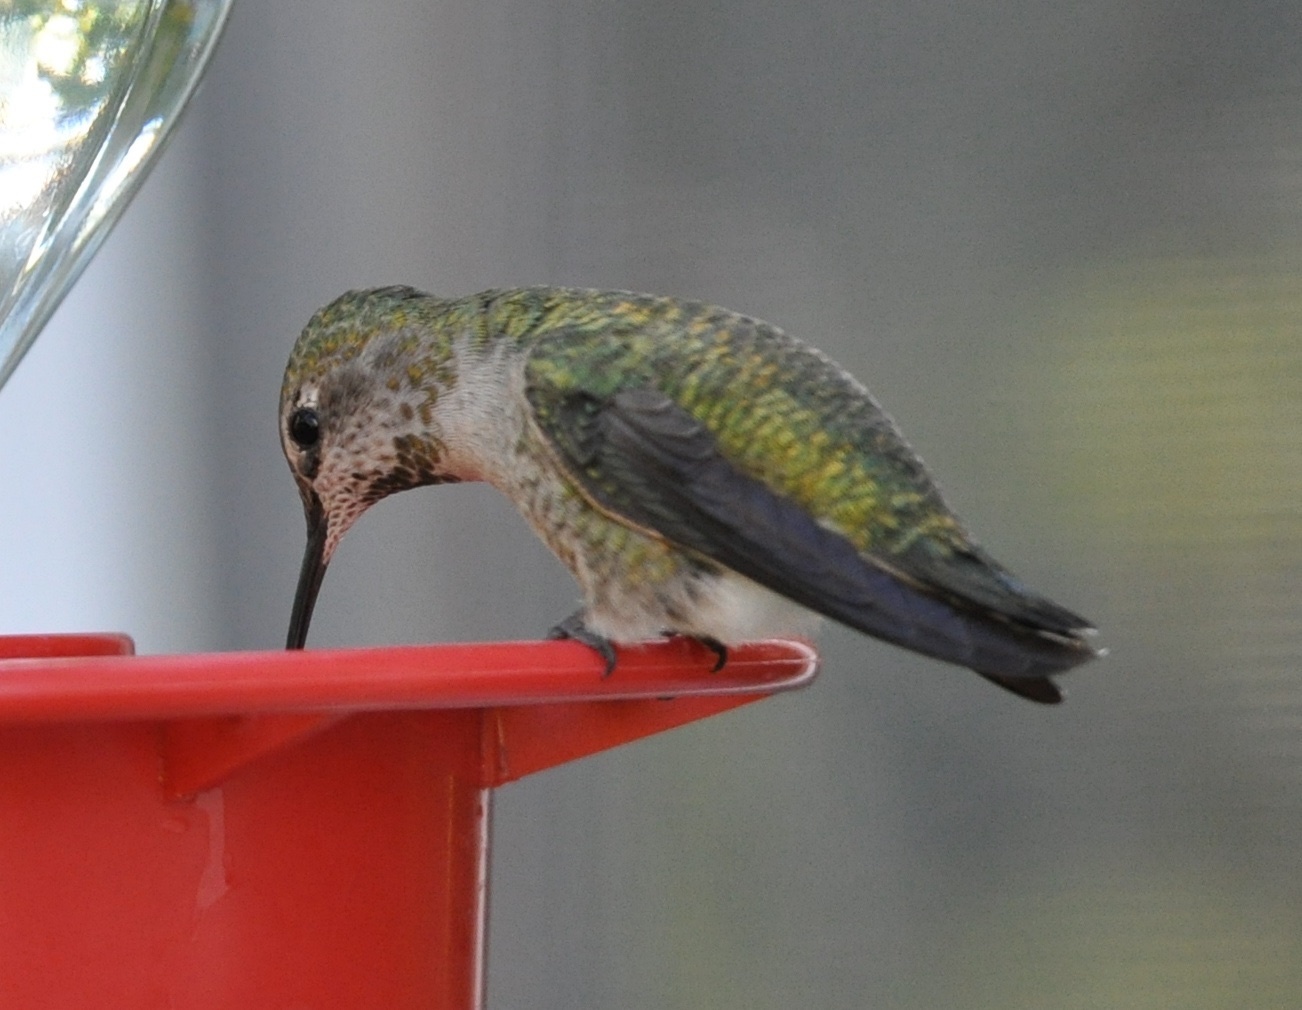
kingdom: Animalia
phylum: Chordata
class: Aves
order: Apodiformes
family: Trochilidae
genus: Calypte
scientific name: Calypte anna
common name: Anna's hummingbird
